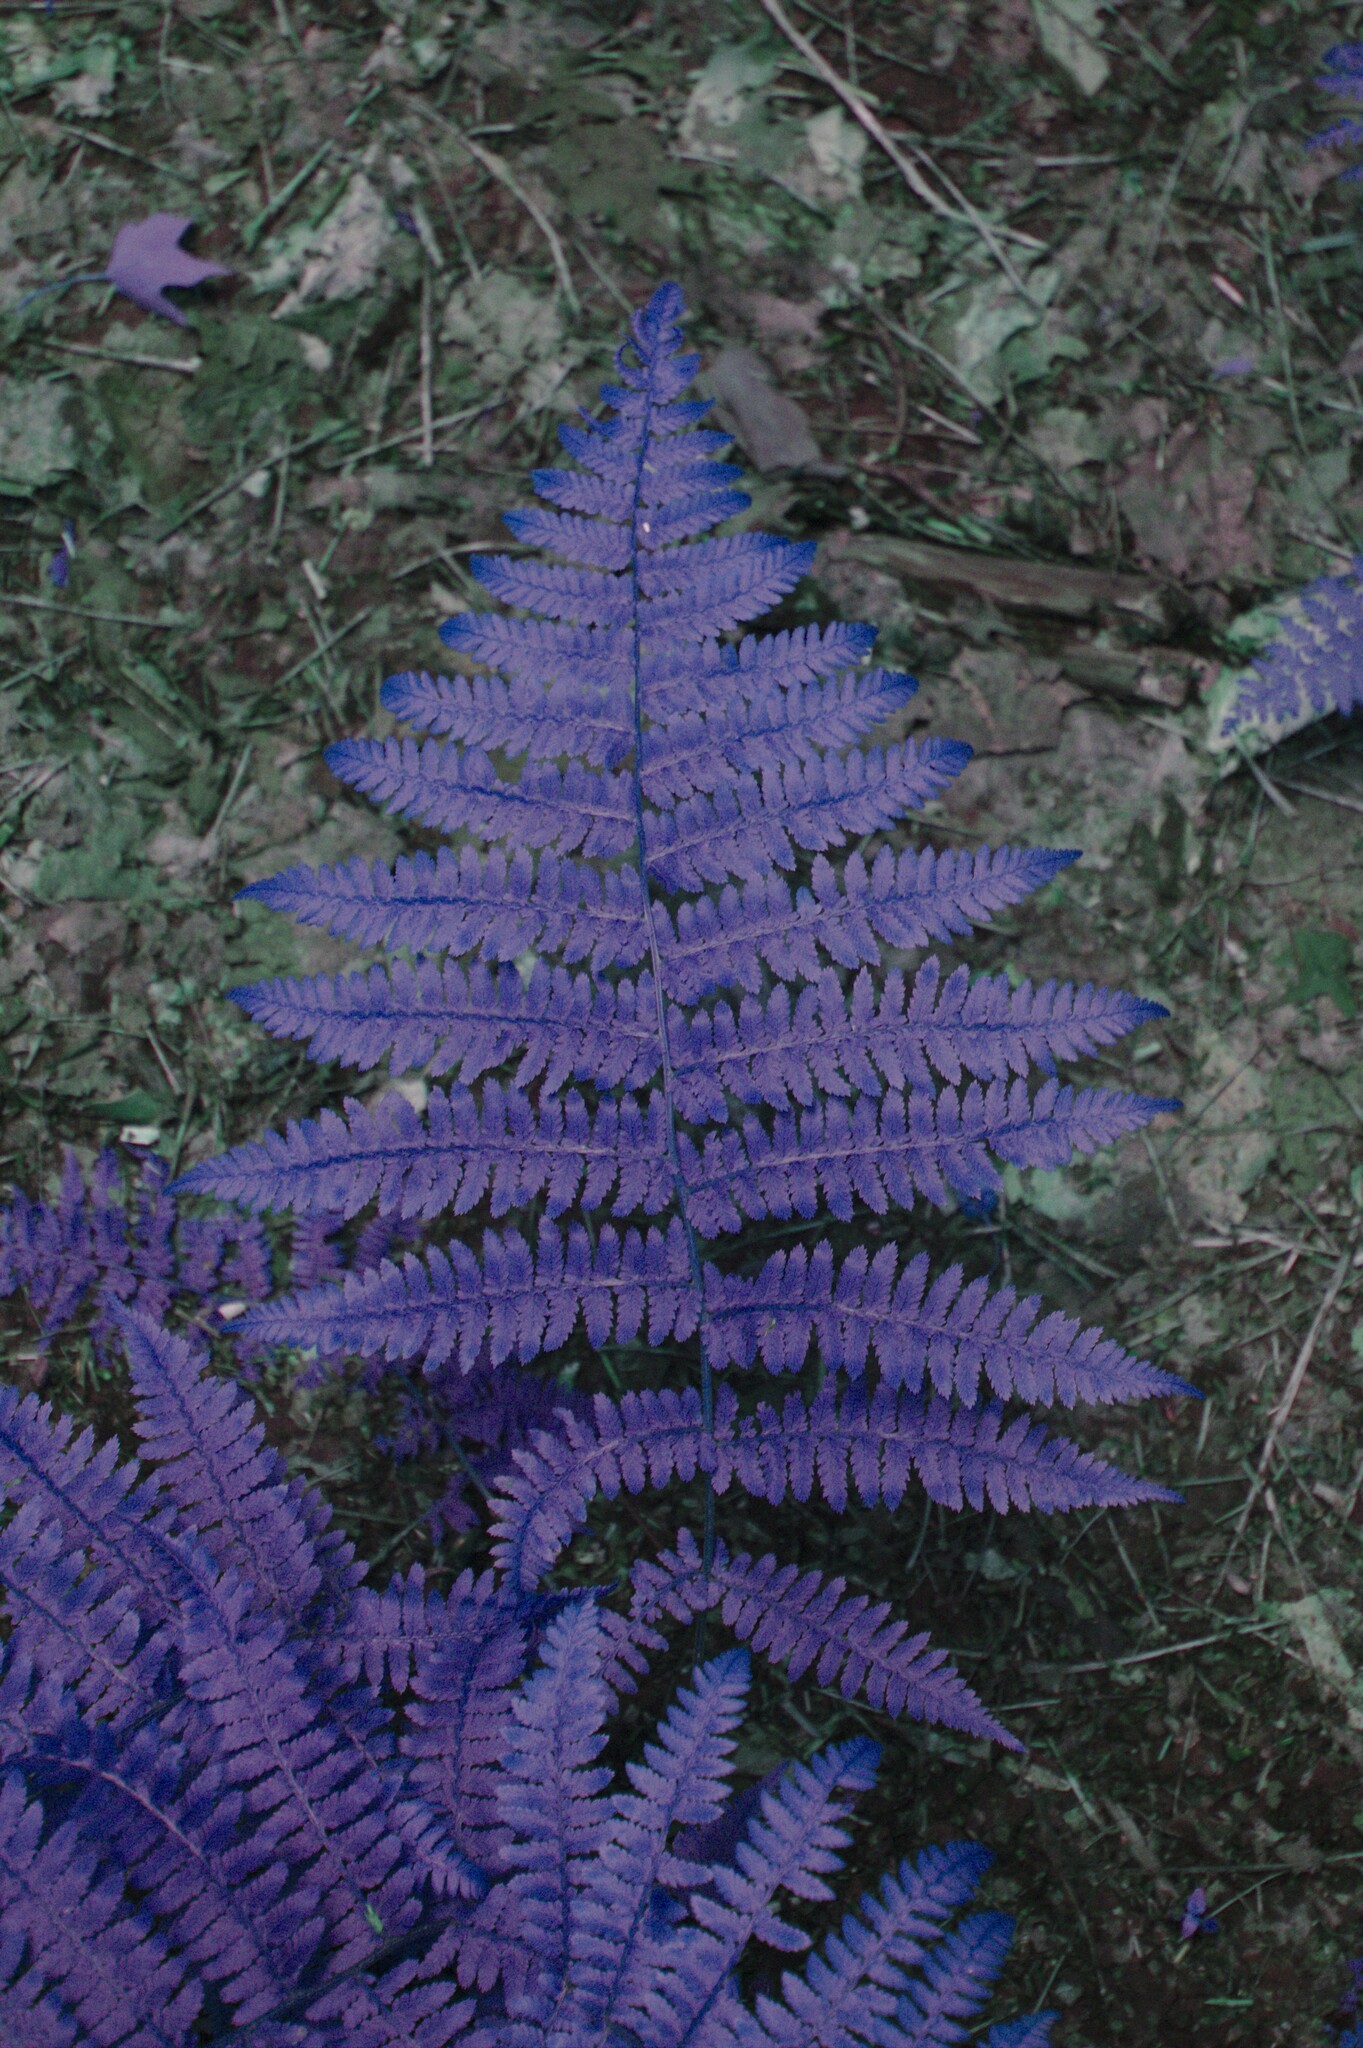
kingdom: Plantae
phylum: Tracheophyta
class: Polypodiopsida
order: Polypodiales
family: Athyriaceae
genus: Athyrium
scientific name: Athyrium angustum
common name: Northern lady fern
